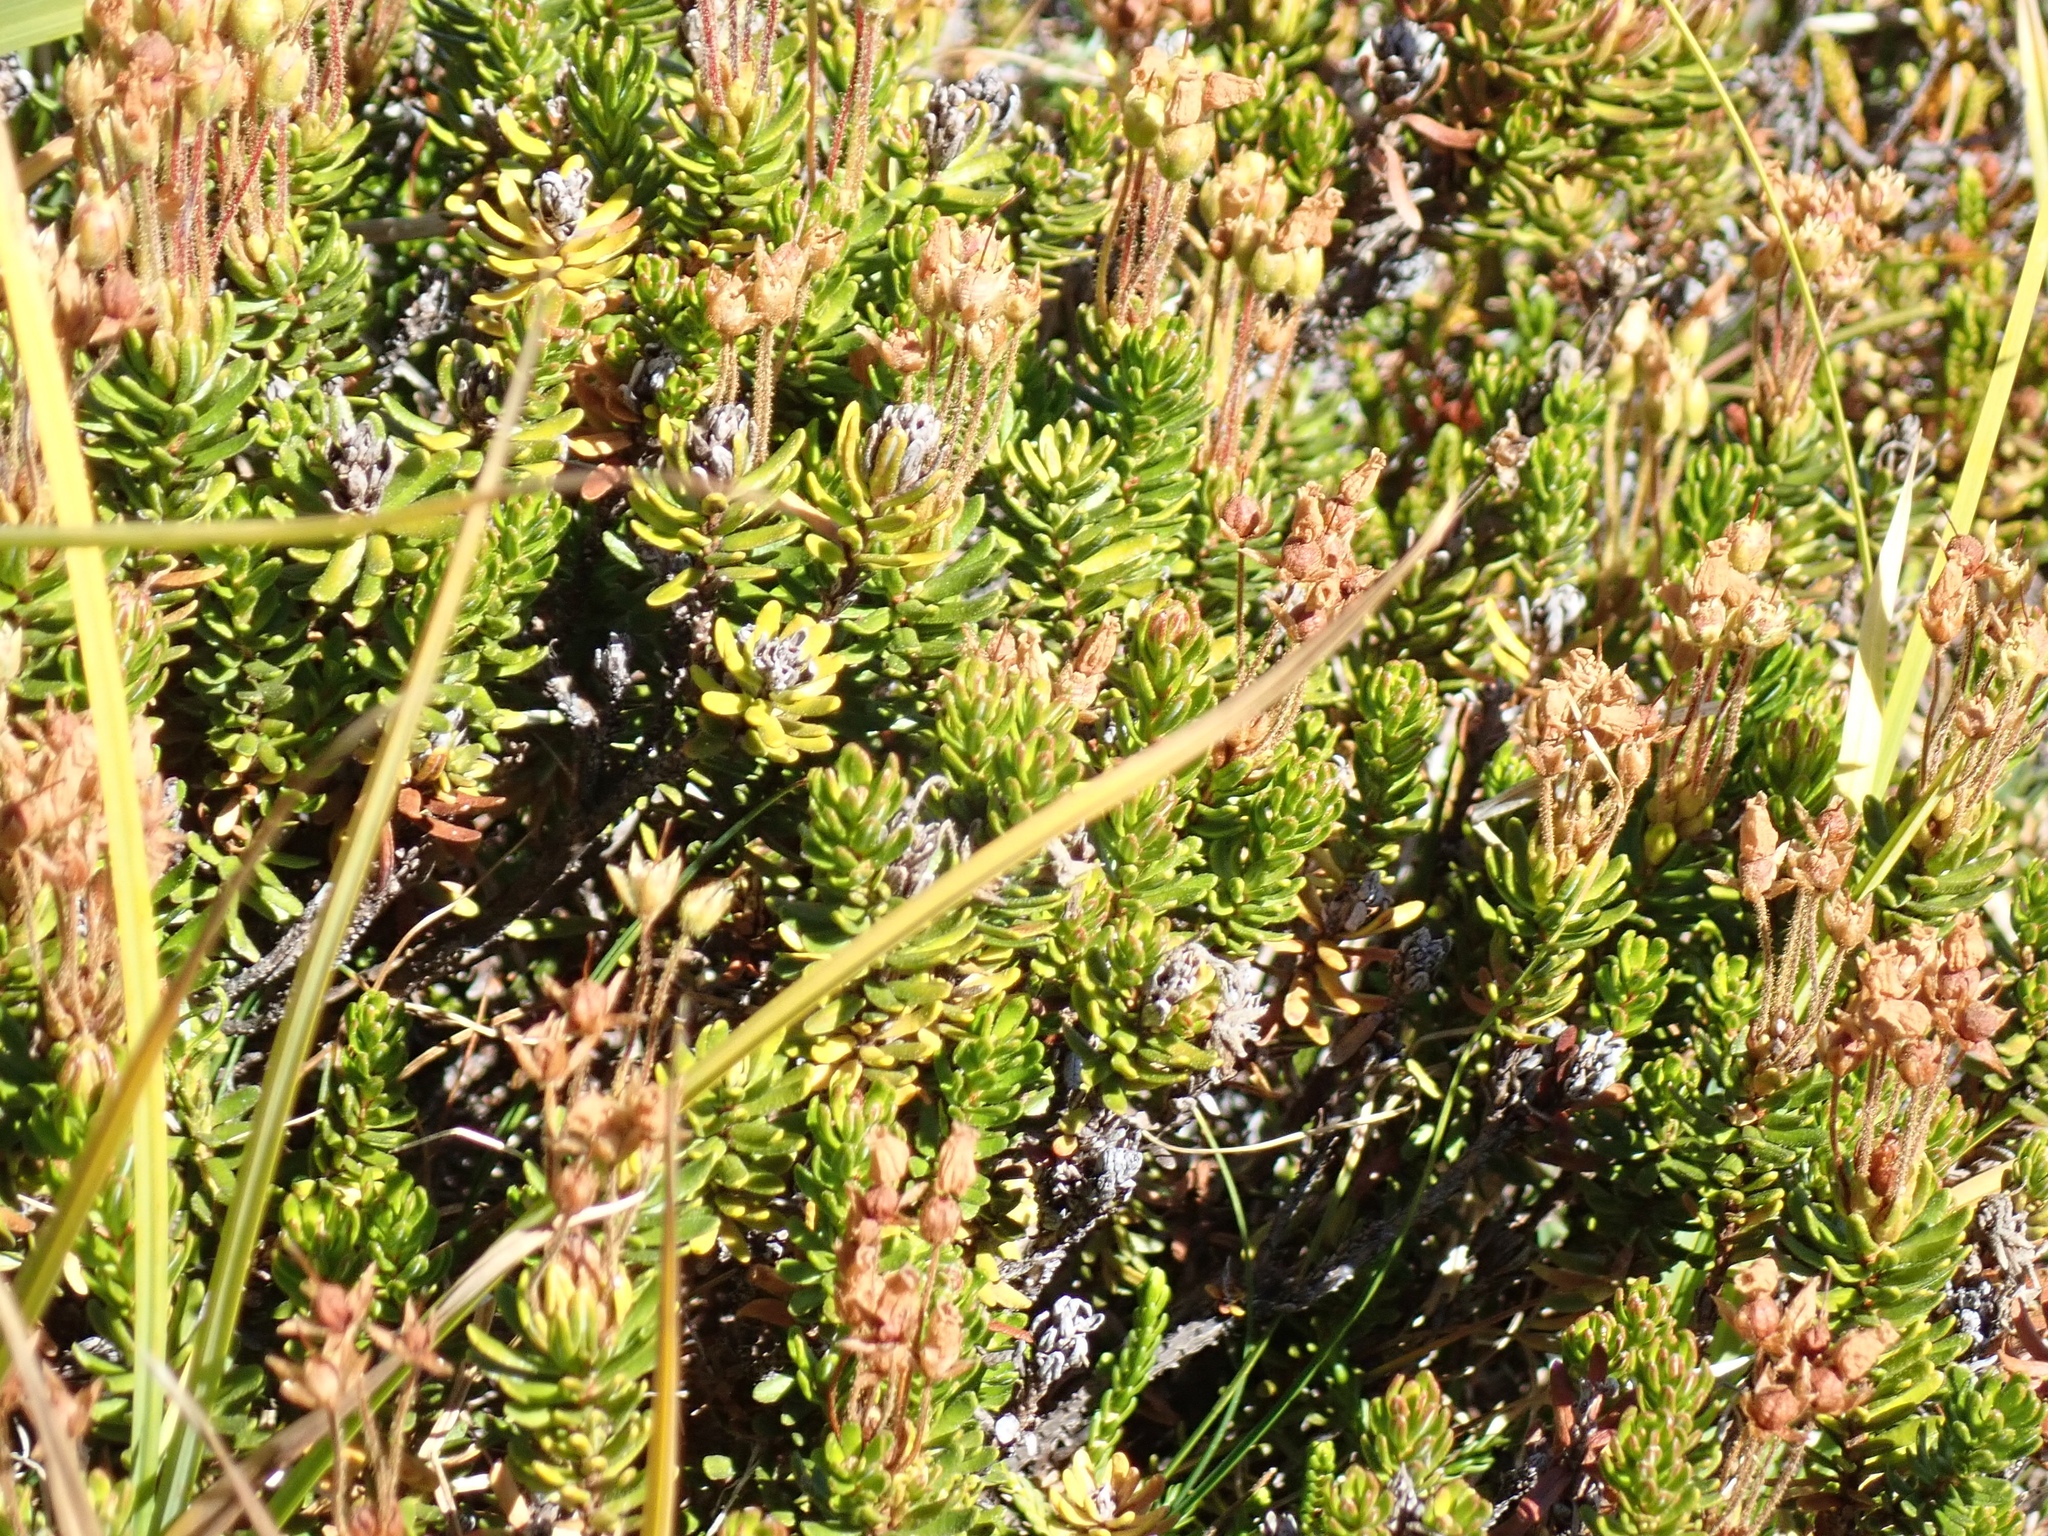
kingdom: Plantae
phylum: Tracheophyta
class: Magnoliopsida
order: Ericales
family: Ericaceae
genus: Phyllodoce
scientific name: Phyllodoce empetriformis
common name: Pink mountain heather
